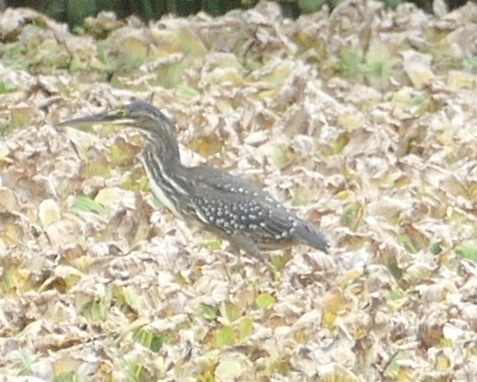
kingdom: Animalia
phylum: Chordata
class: Aves
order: Pelecaniformes
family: Ardeidae
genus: Butorides
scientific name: Butorides striata
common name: Striated heron
